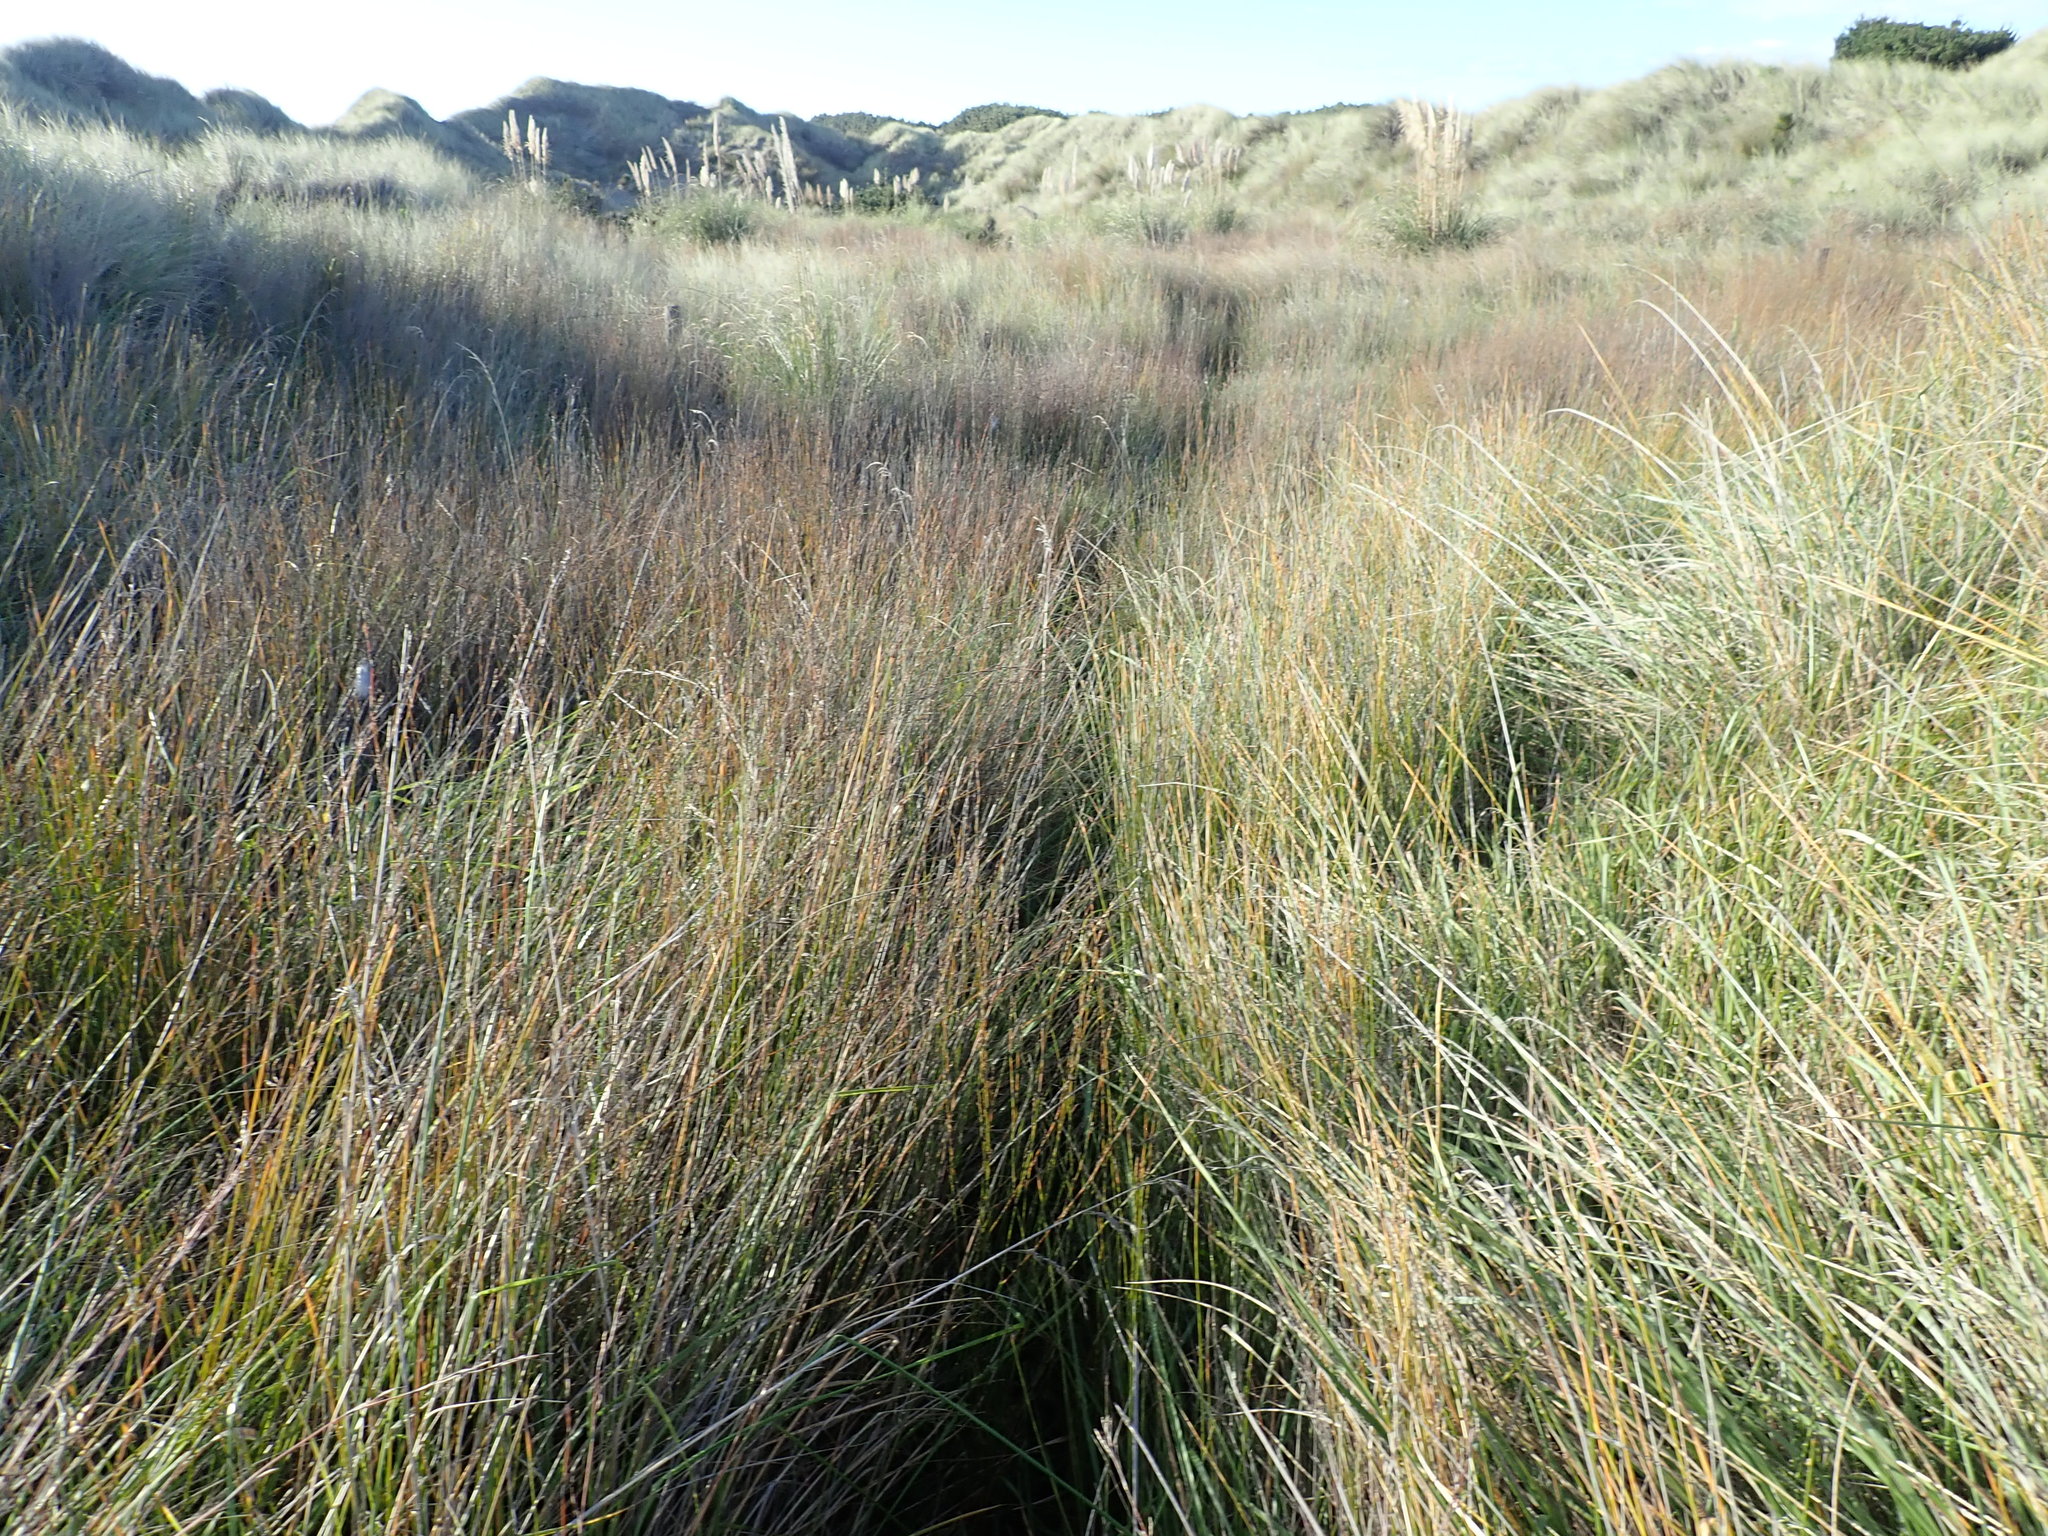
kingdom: Plantae
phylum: Tracheophyta
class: Liliopsida
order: Poales
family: Restionaceae
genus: Apodasmia
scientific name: Apodasmia similis
